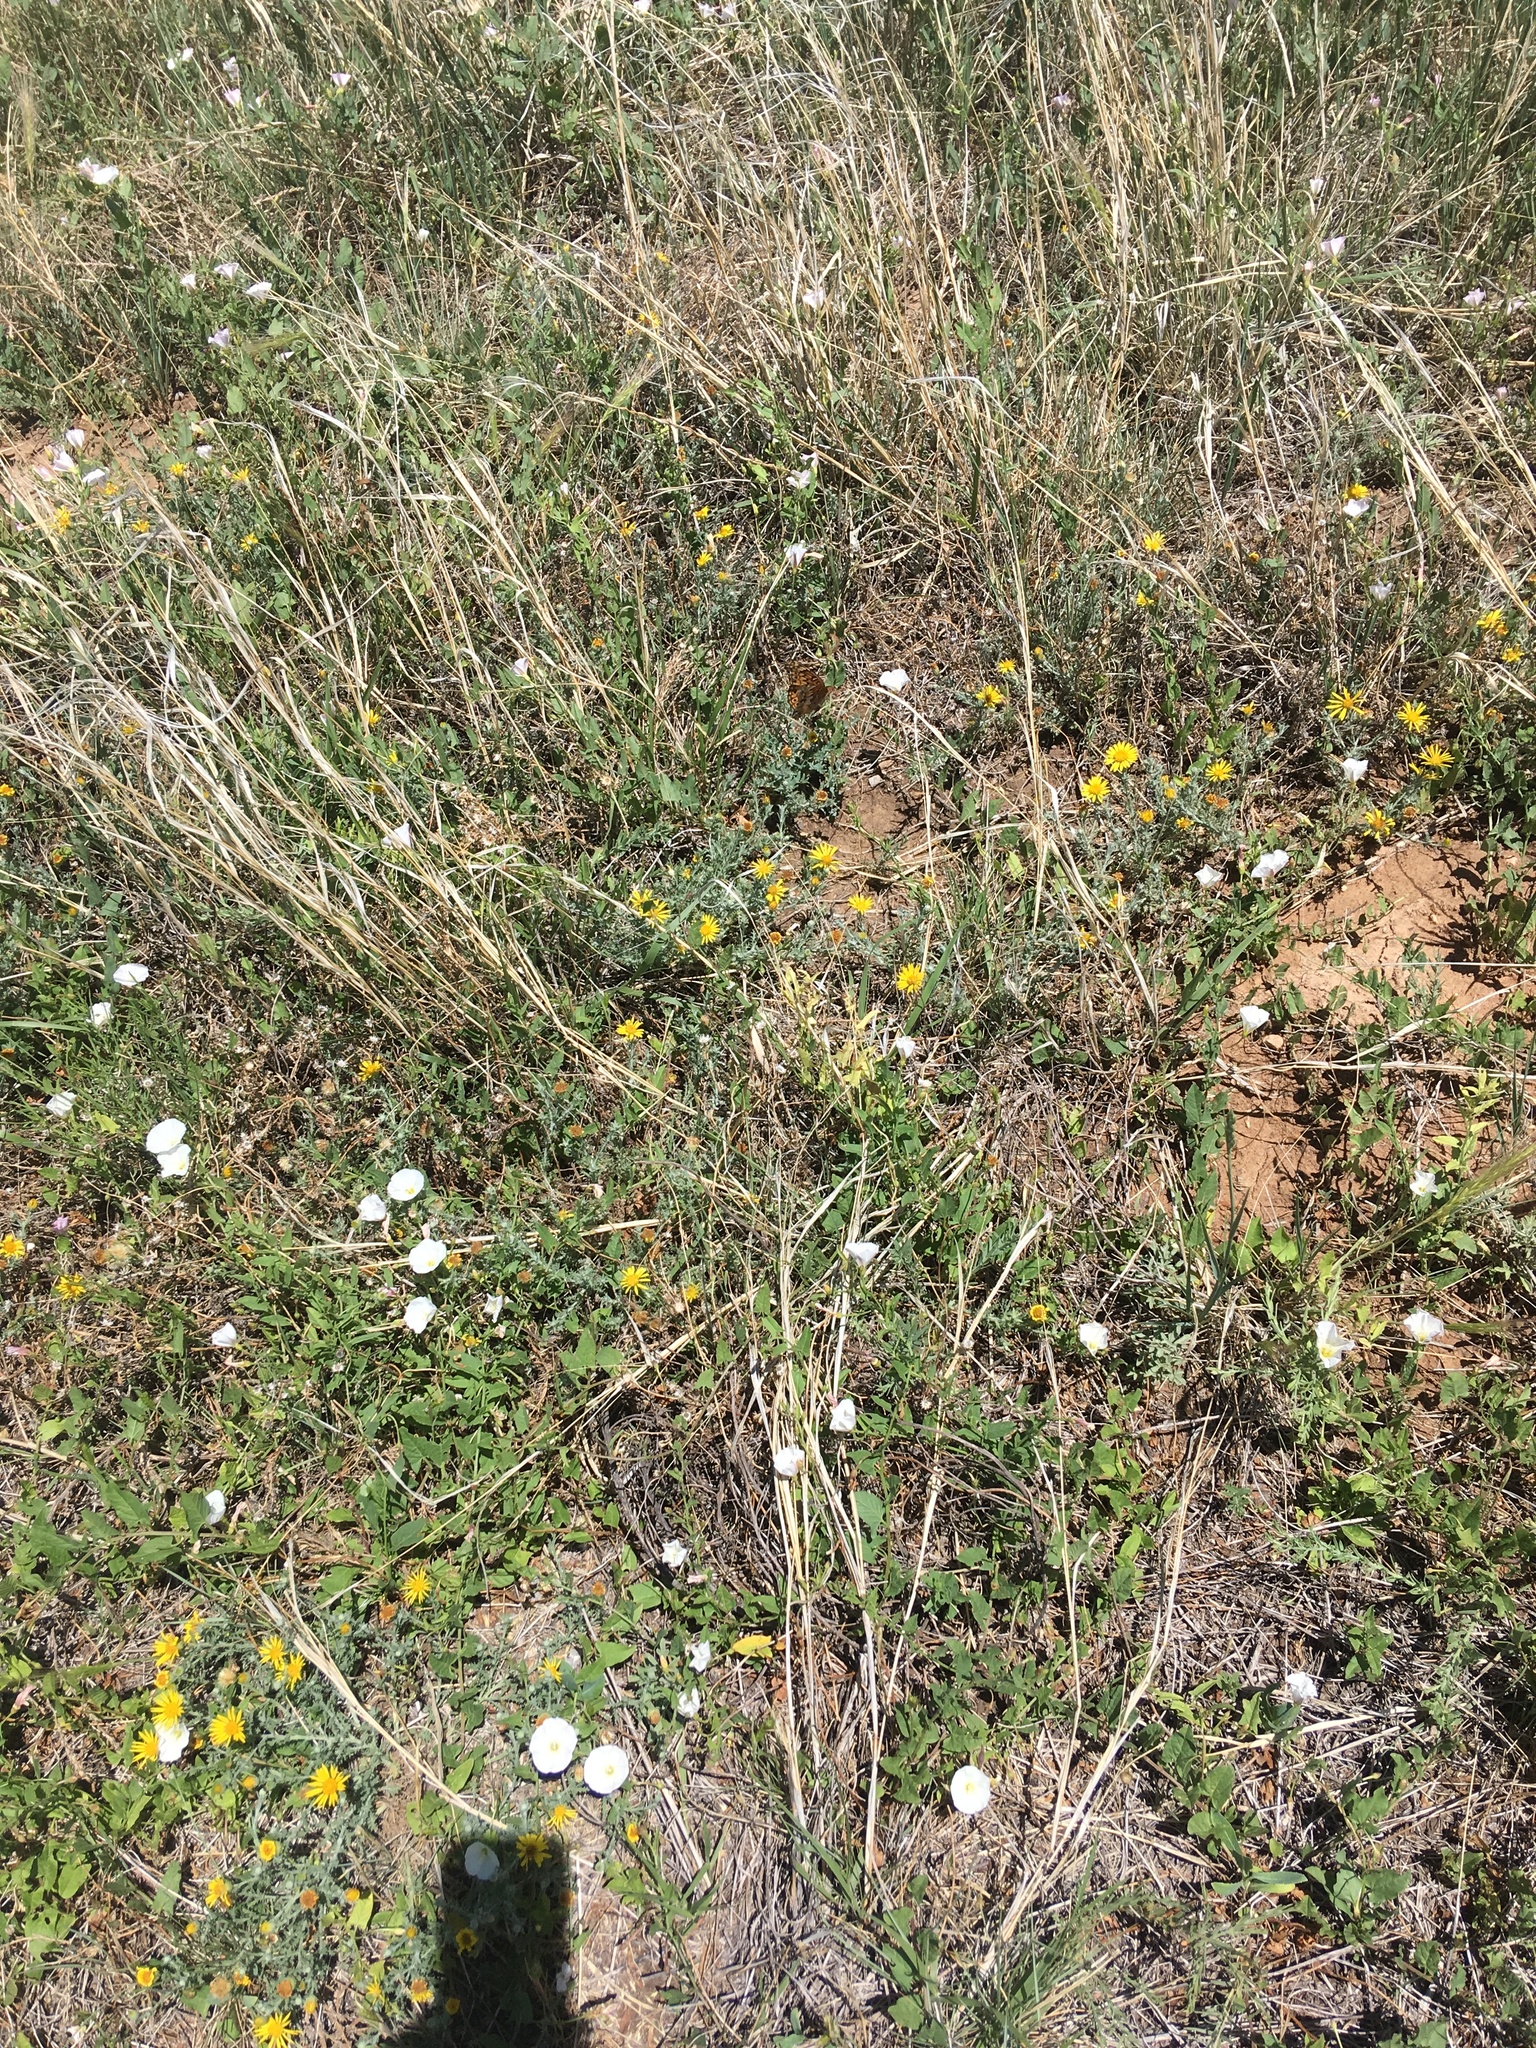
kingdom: Plantae
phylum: Tracheophyta
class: Magnoliopsida
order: Solanales
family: Convolvulaceae
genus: Convolvulus
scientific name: Convolvulus arvensis
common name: Field bindweed
